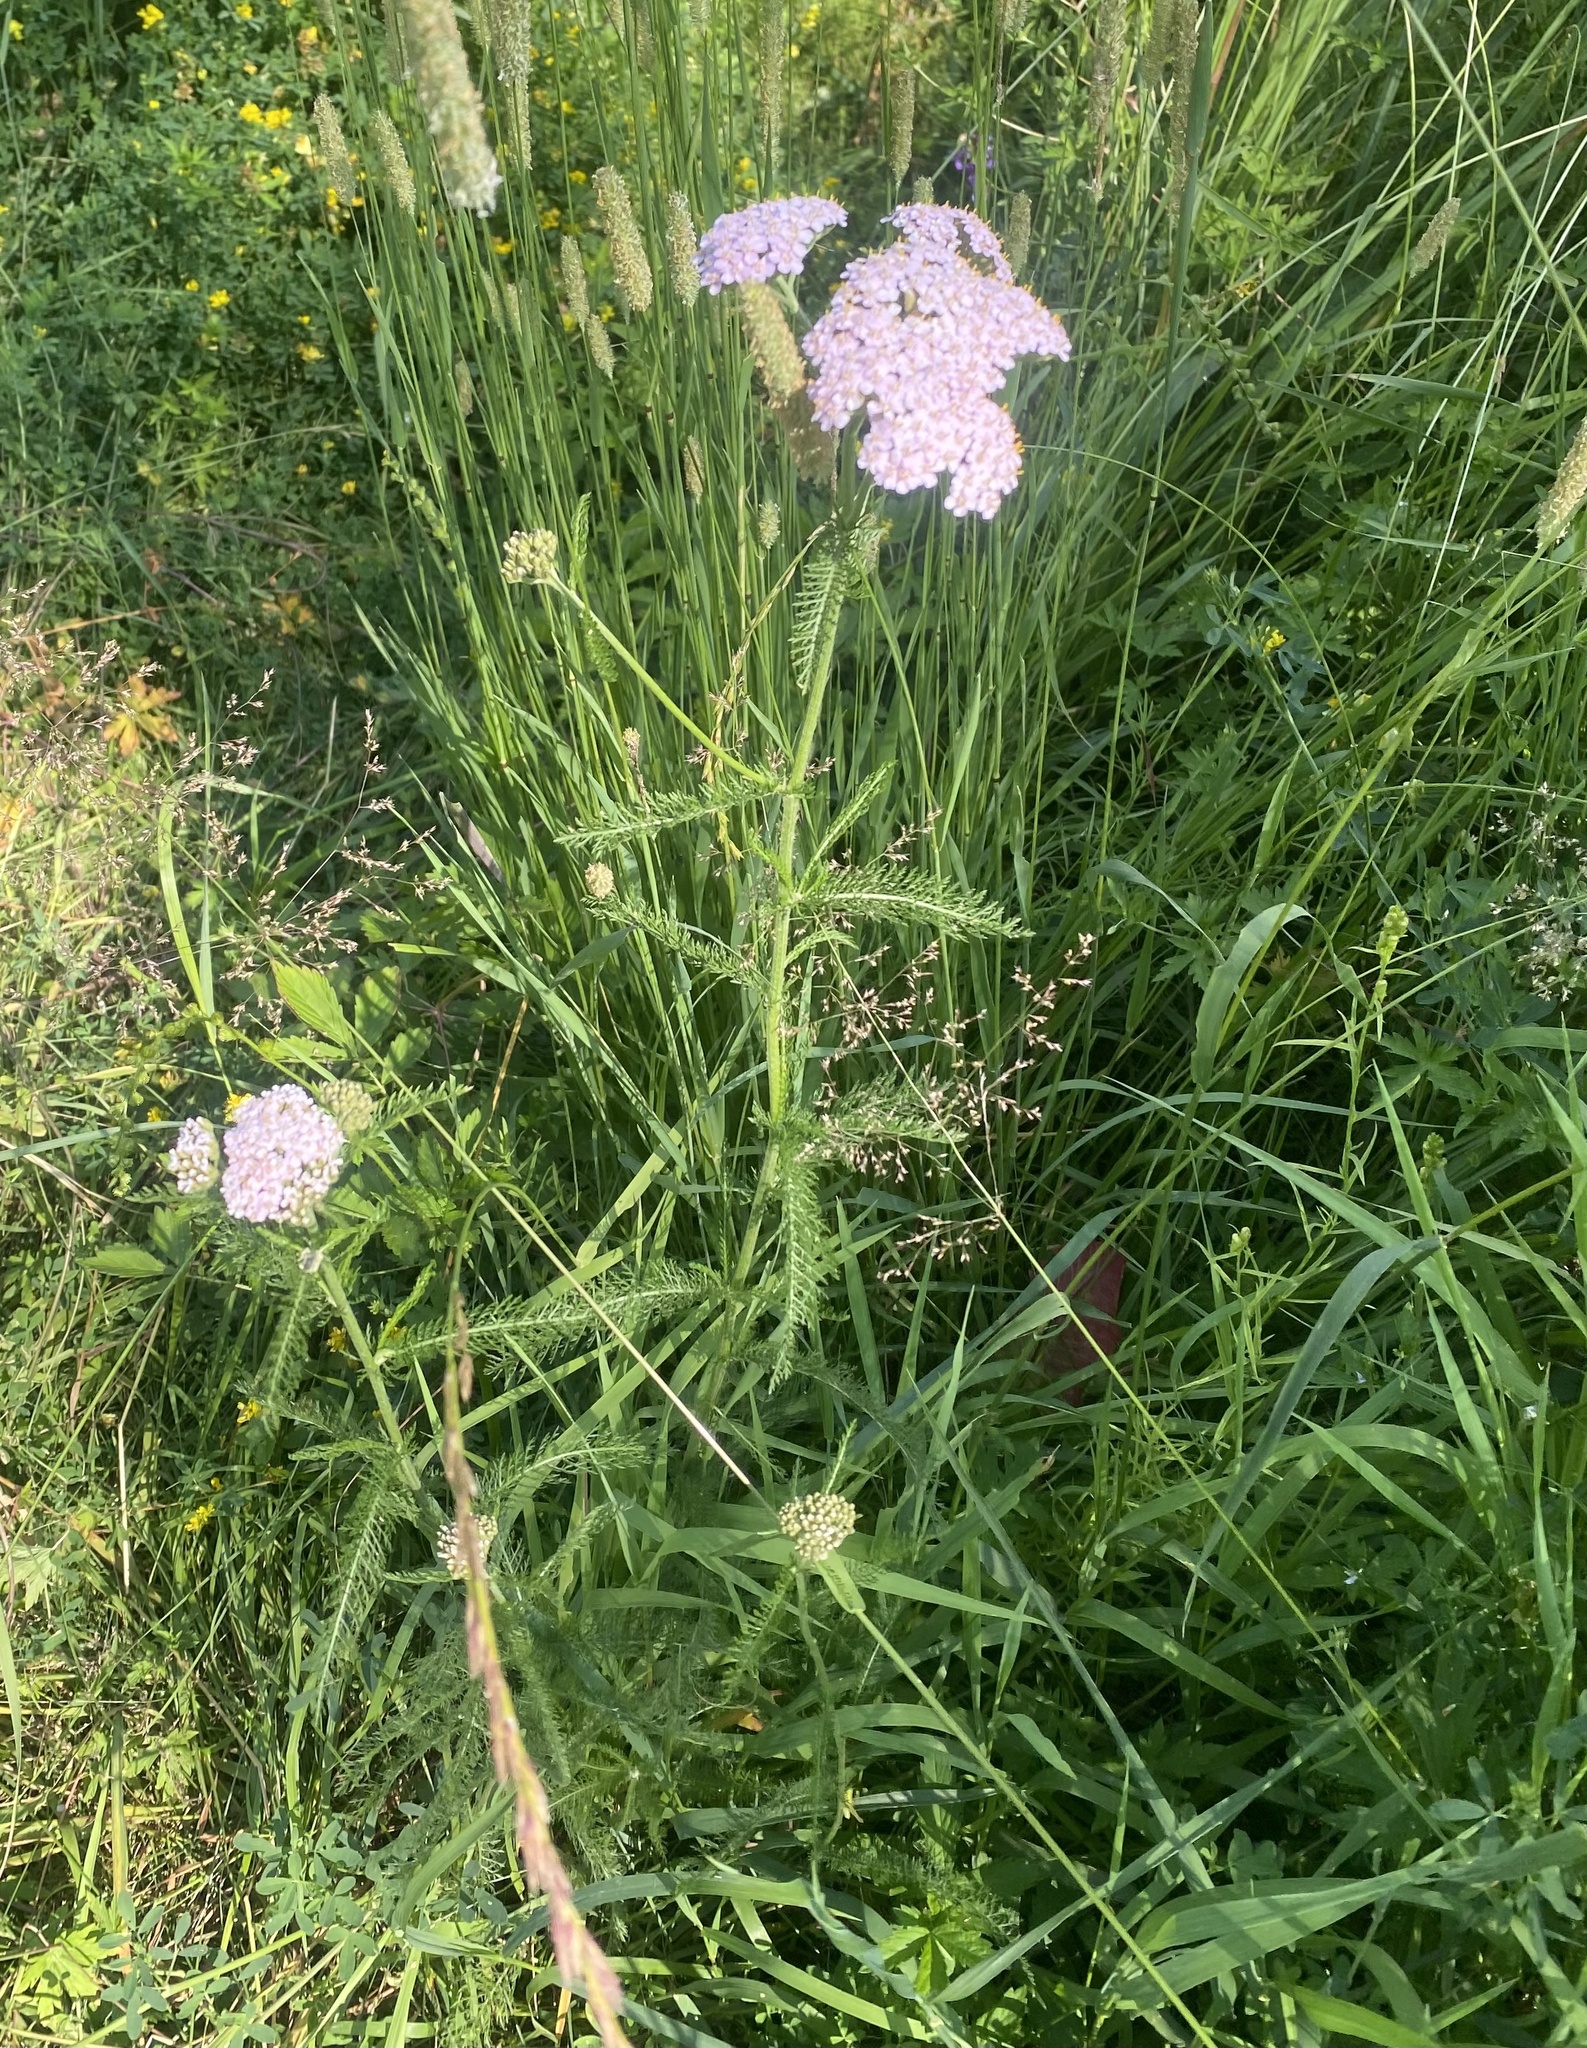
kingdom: Plantae
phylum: Tracheophyta
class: Magnoliopsida
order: Asterales
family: Asteraceae
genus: Achillea
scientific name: Achillea asiatica
